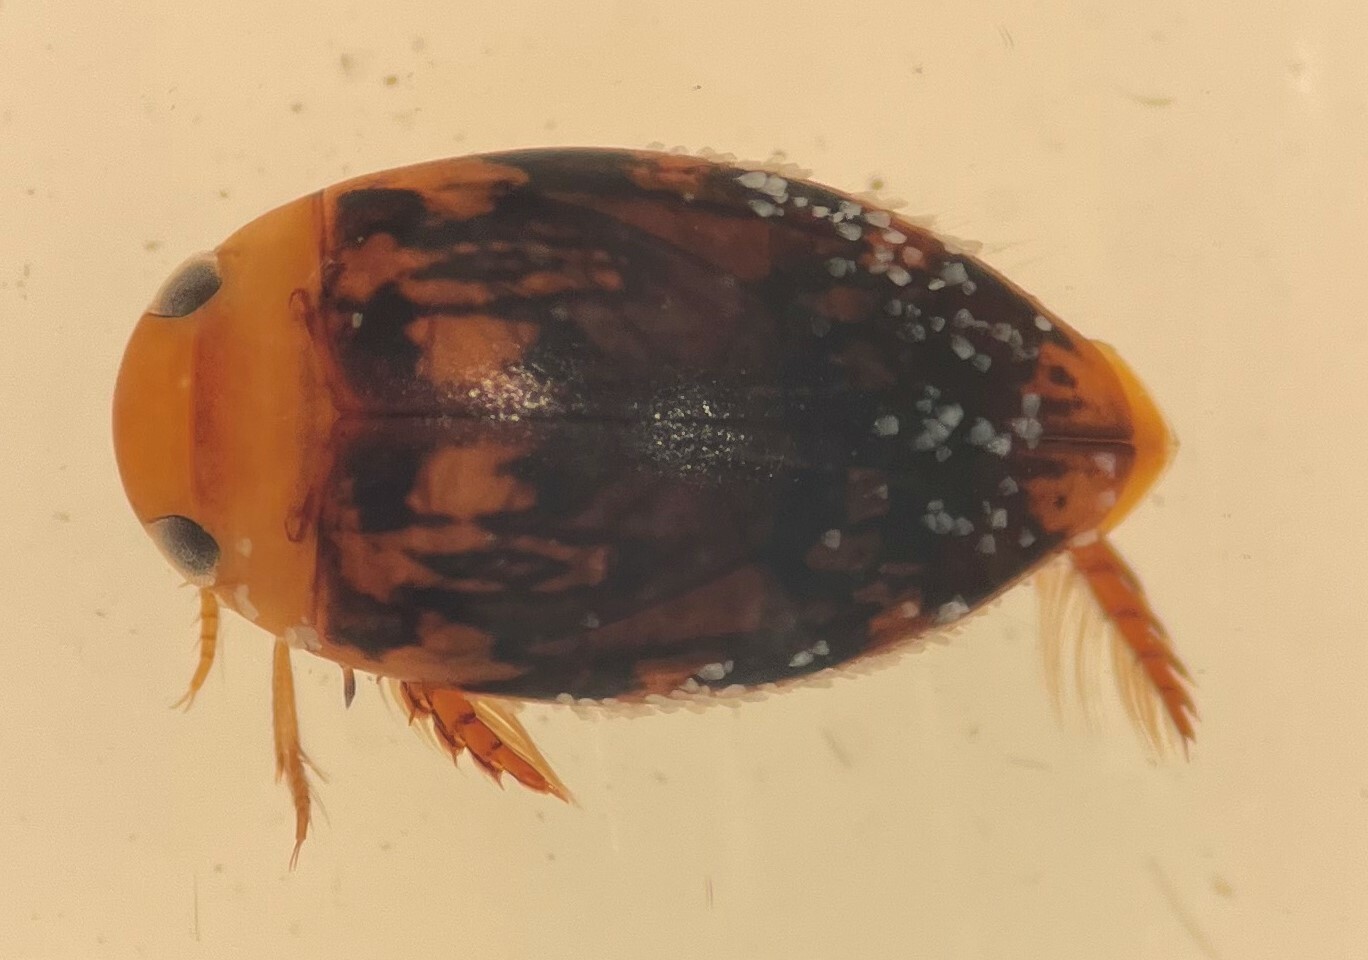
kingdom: Animalia
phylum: Arthropoda
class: Insecta
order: Coleoptera
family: Dytiscidae
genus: Laccophilus
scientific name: Laccophilus undatus
